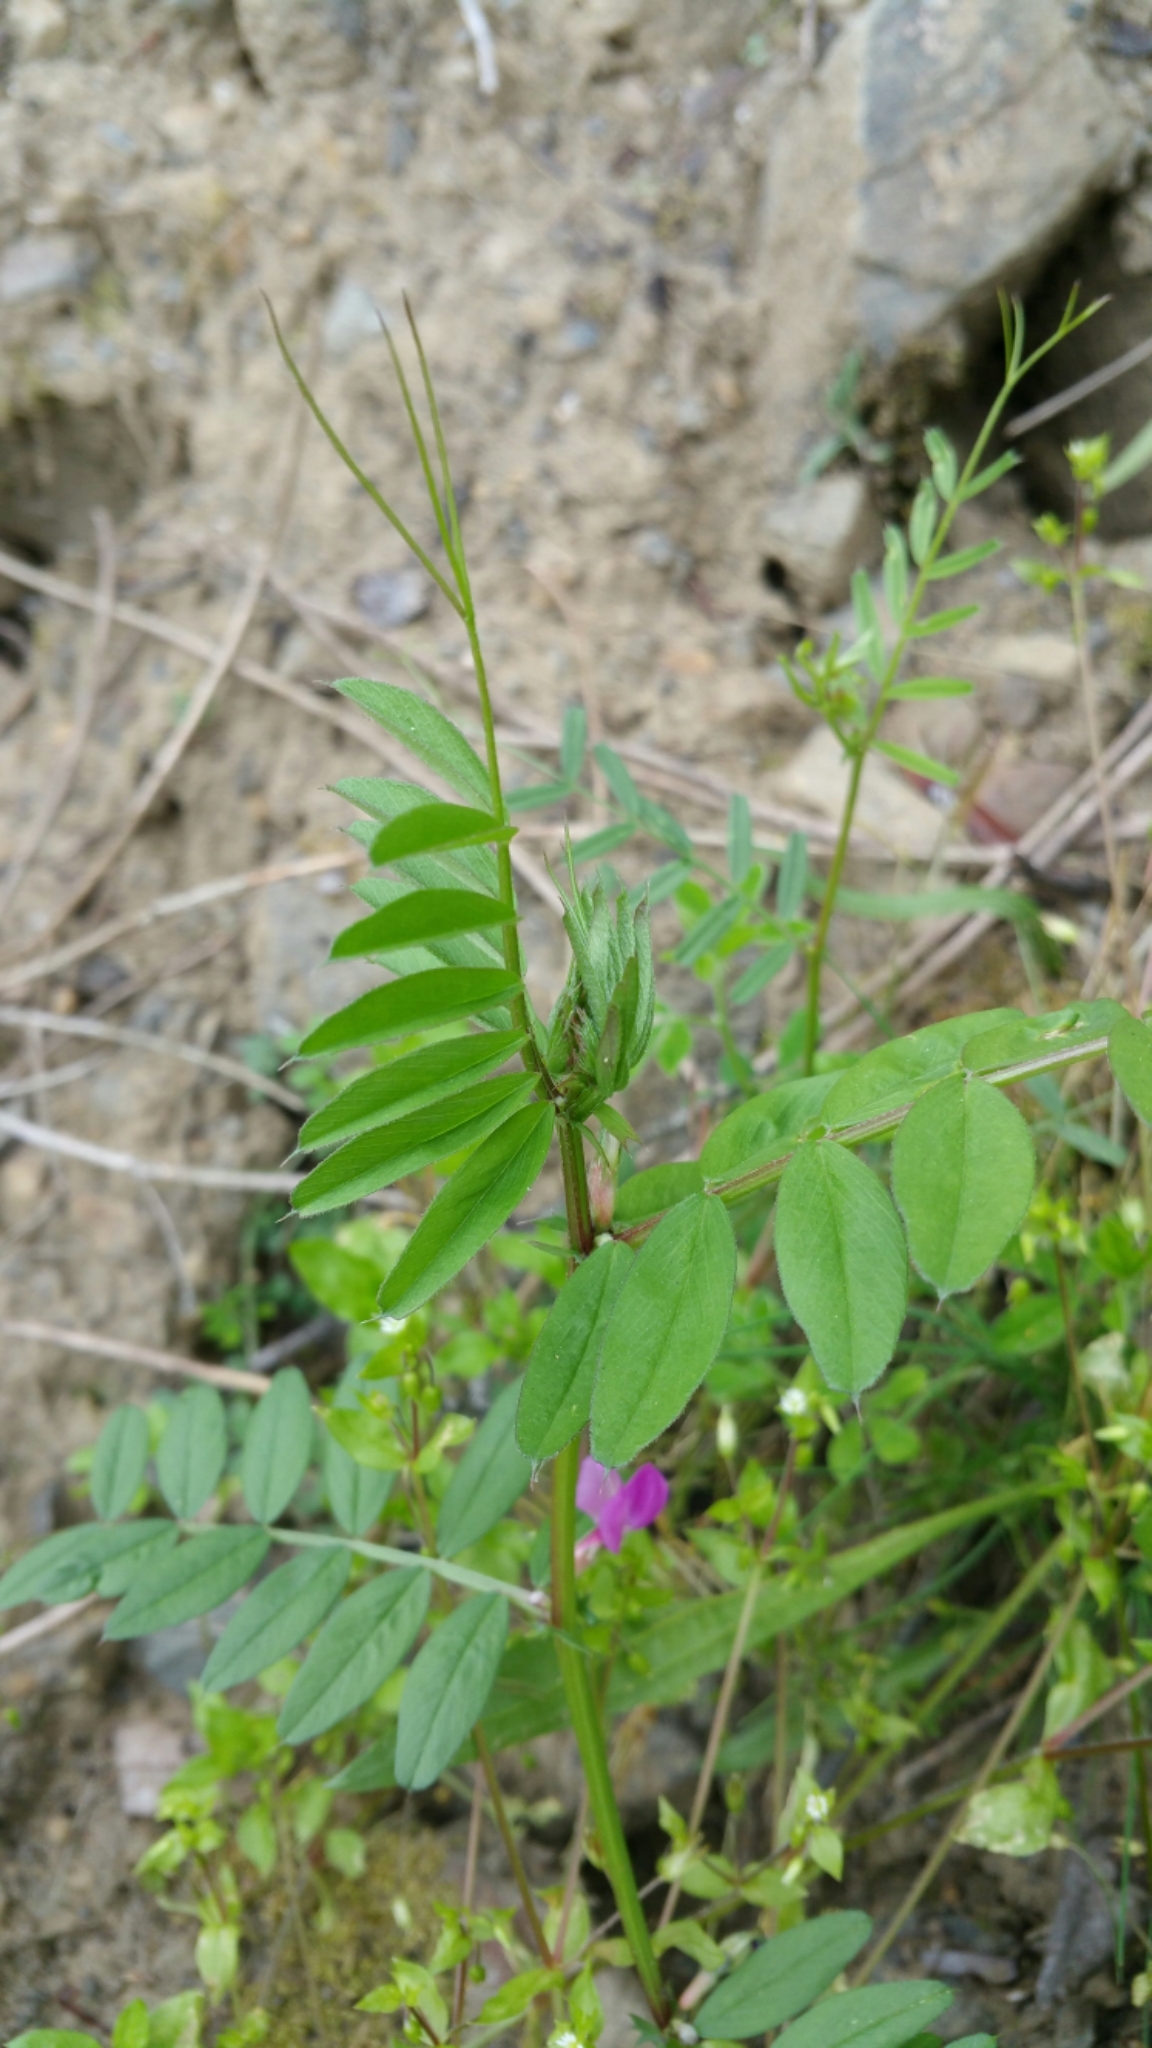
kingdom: Plantae
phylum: Tracheophyta
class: Magnoliopsida
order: Fabales
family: Fabaceae
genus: Vicia
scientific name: Vicia sativa
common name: Garden vetch
